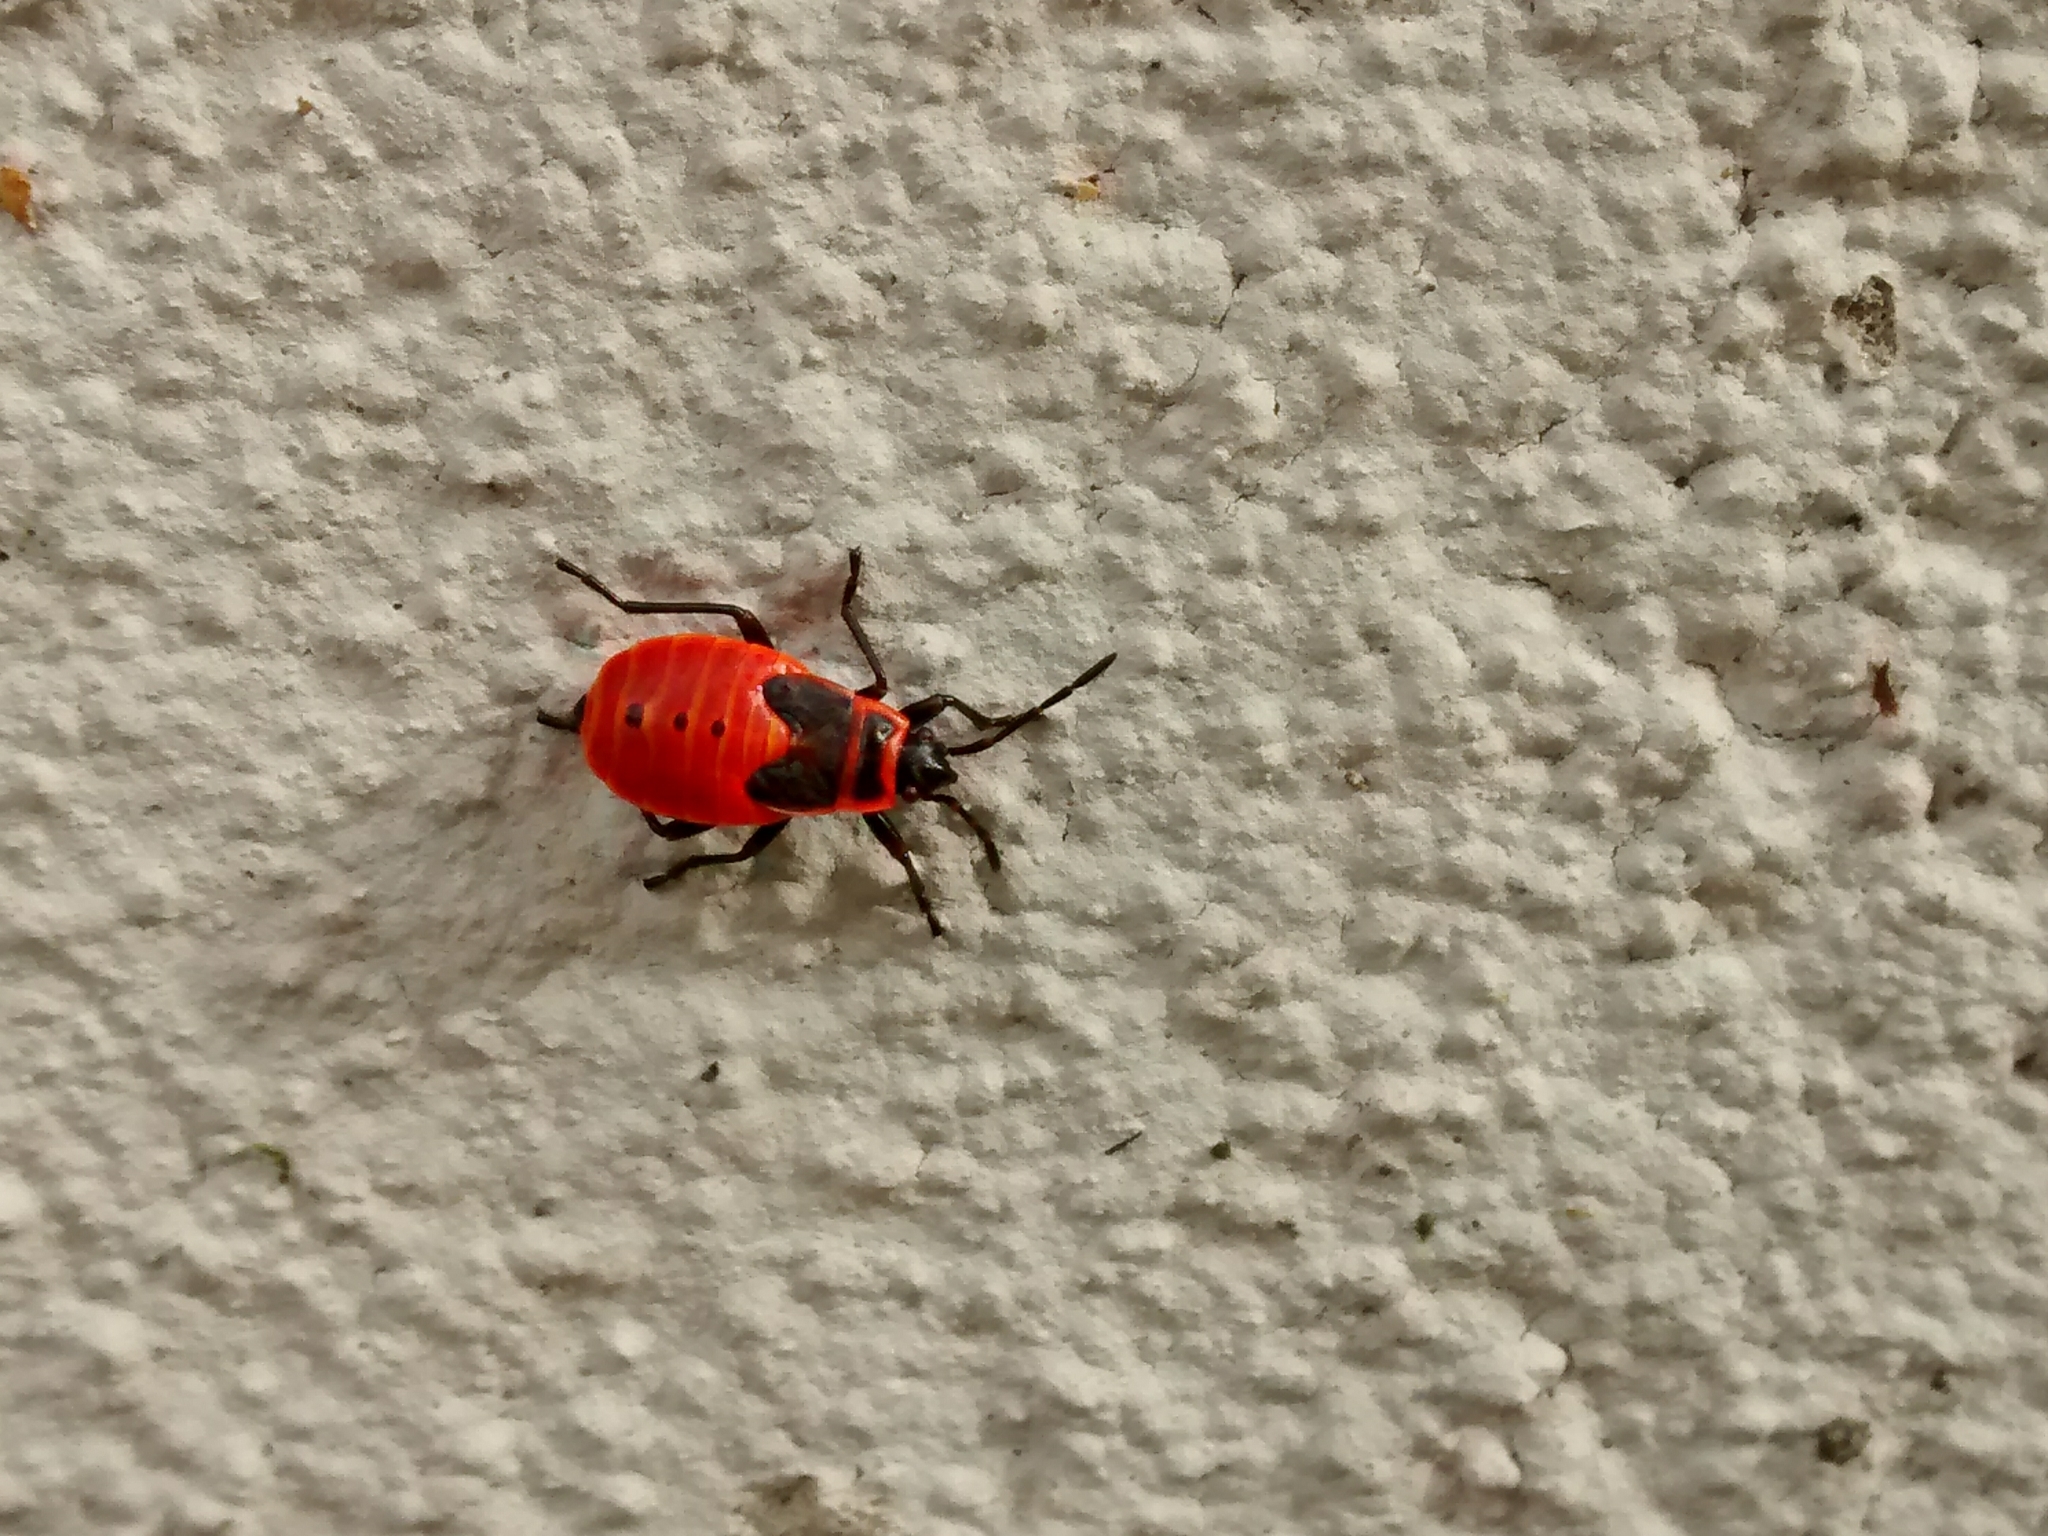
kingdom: Animalia
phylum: Arthropoda
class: Insecta
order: Hemiptera
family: Pyrrhocoridae
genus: Pyrrhocoris
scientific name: Pyrrhocoris apterus
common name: Firebug
